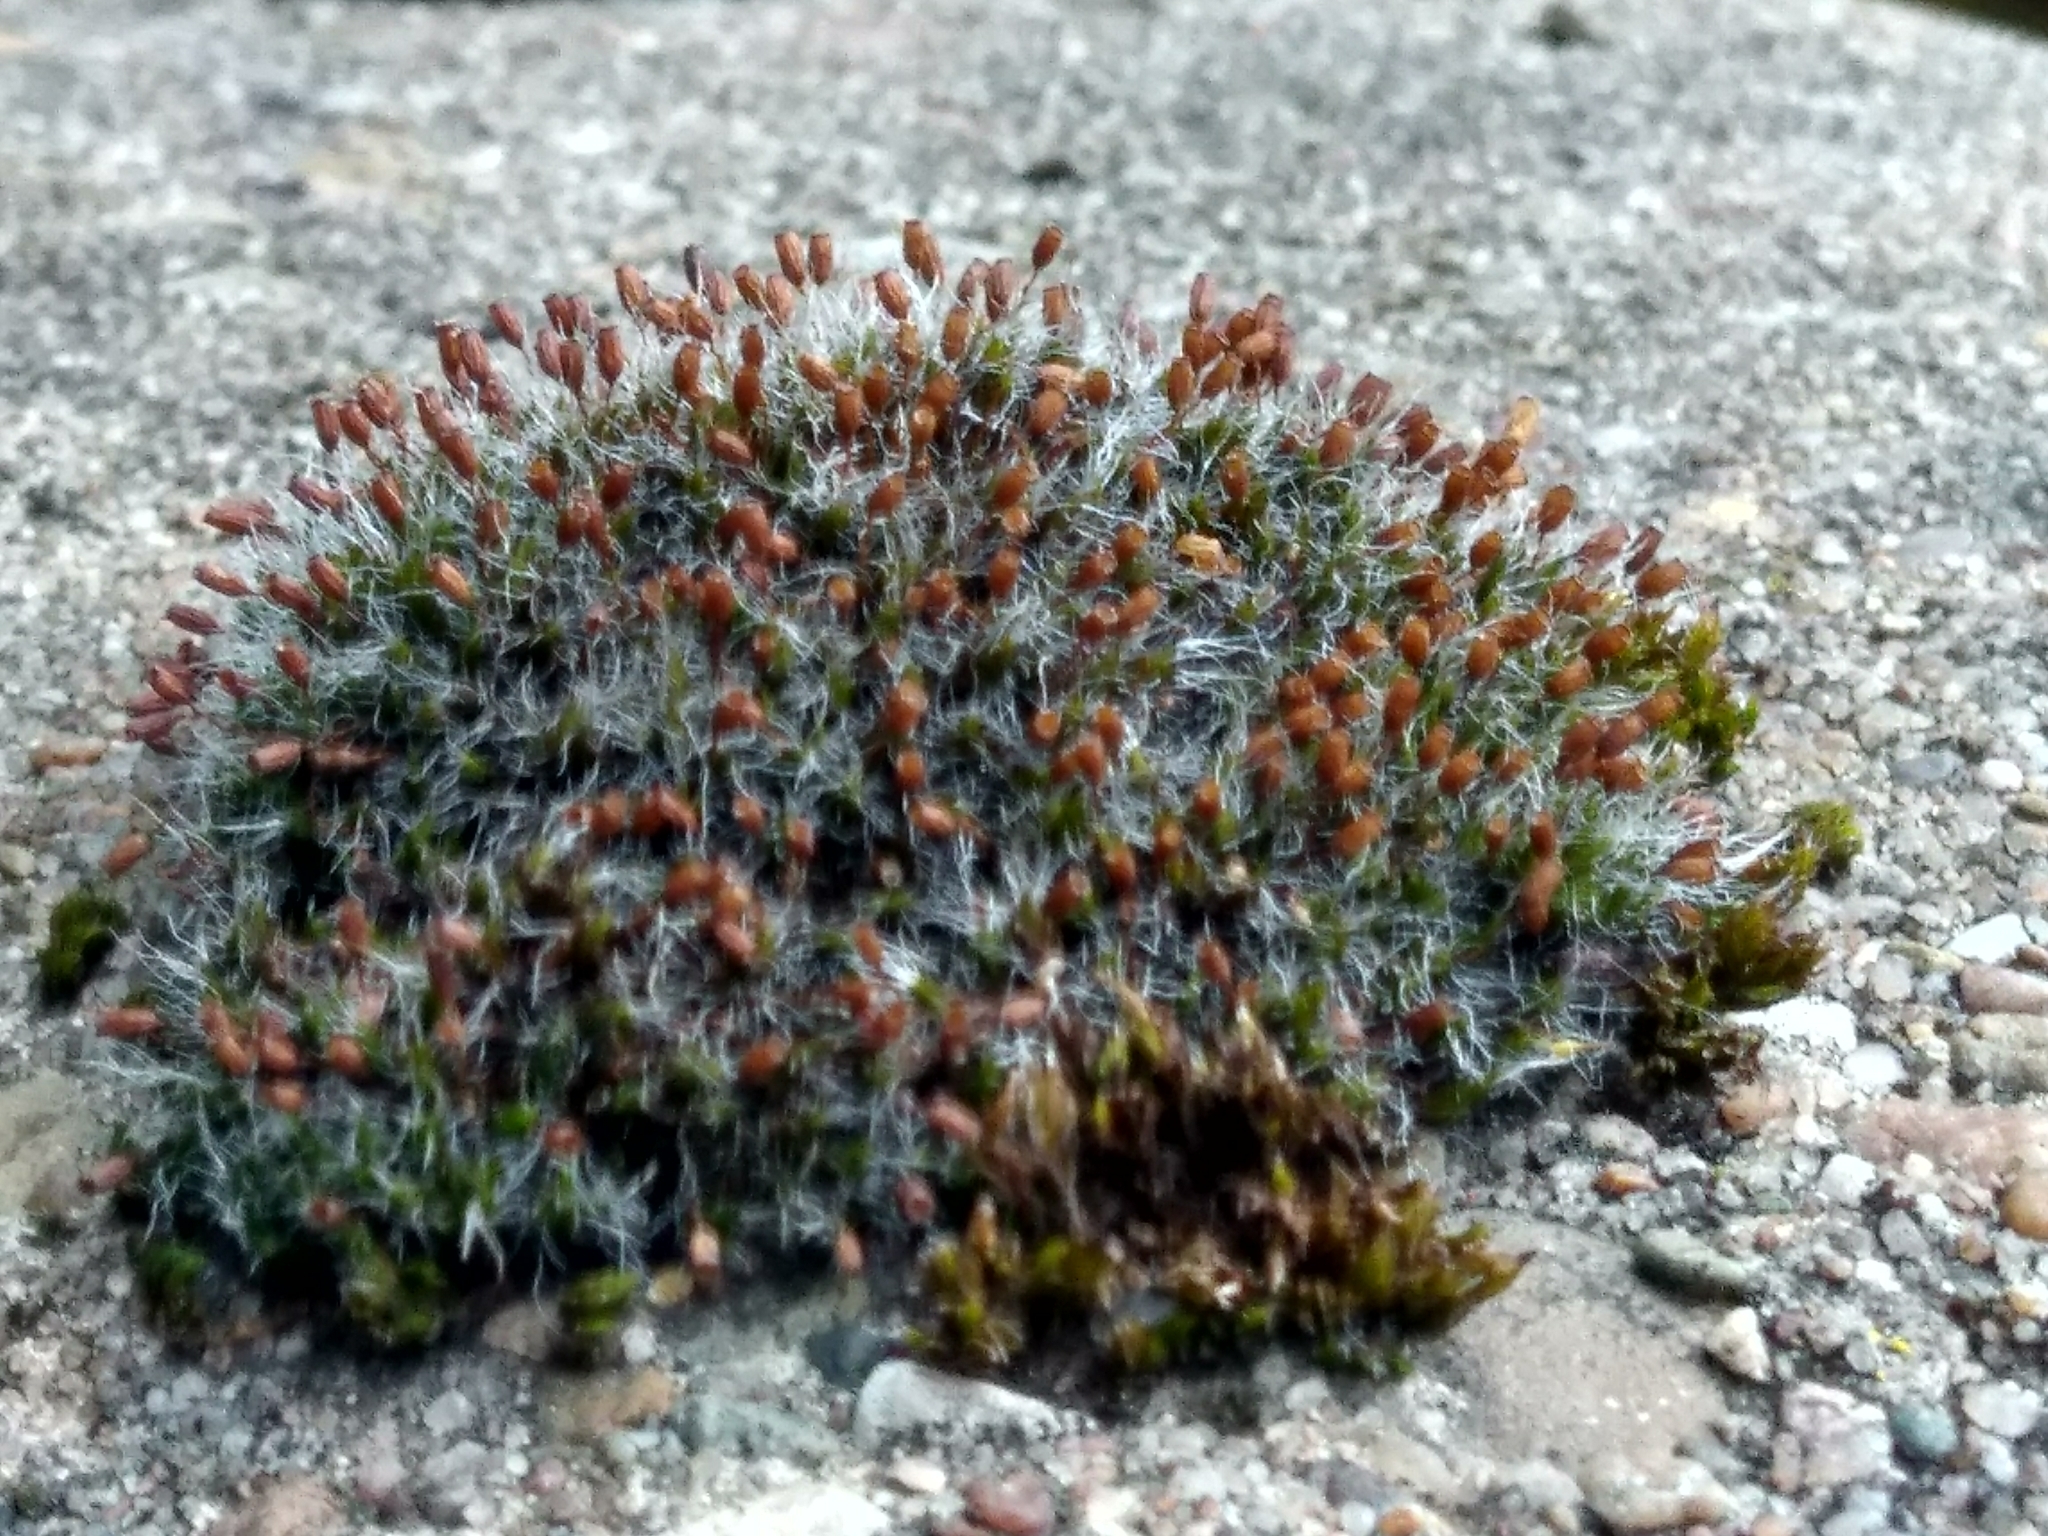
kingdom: Plantae
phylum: Bryophyta
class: Bryopsida
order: Grimmiales
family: Grimmiaceae
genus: Grimmia
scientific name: Grimmia pulvinata
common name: Grey-cushioned grimmia
